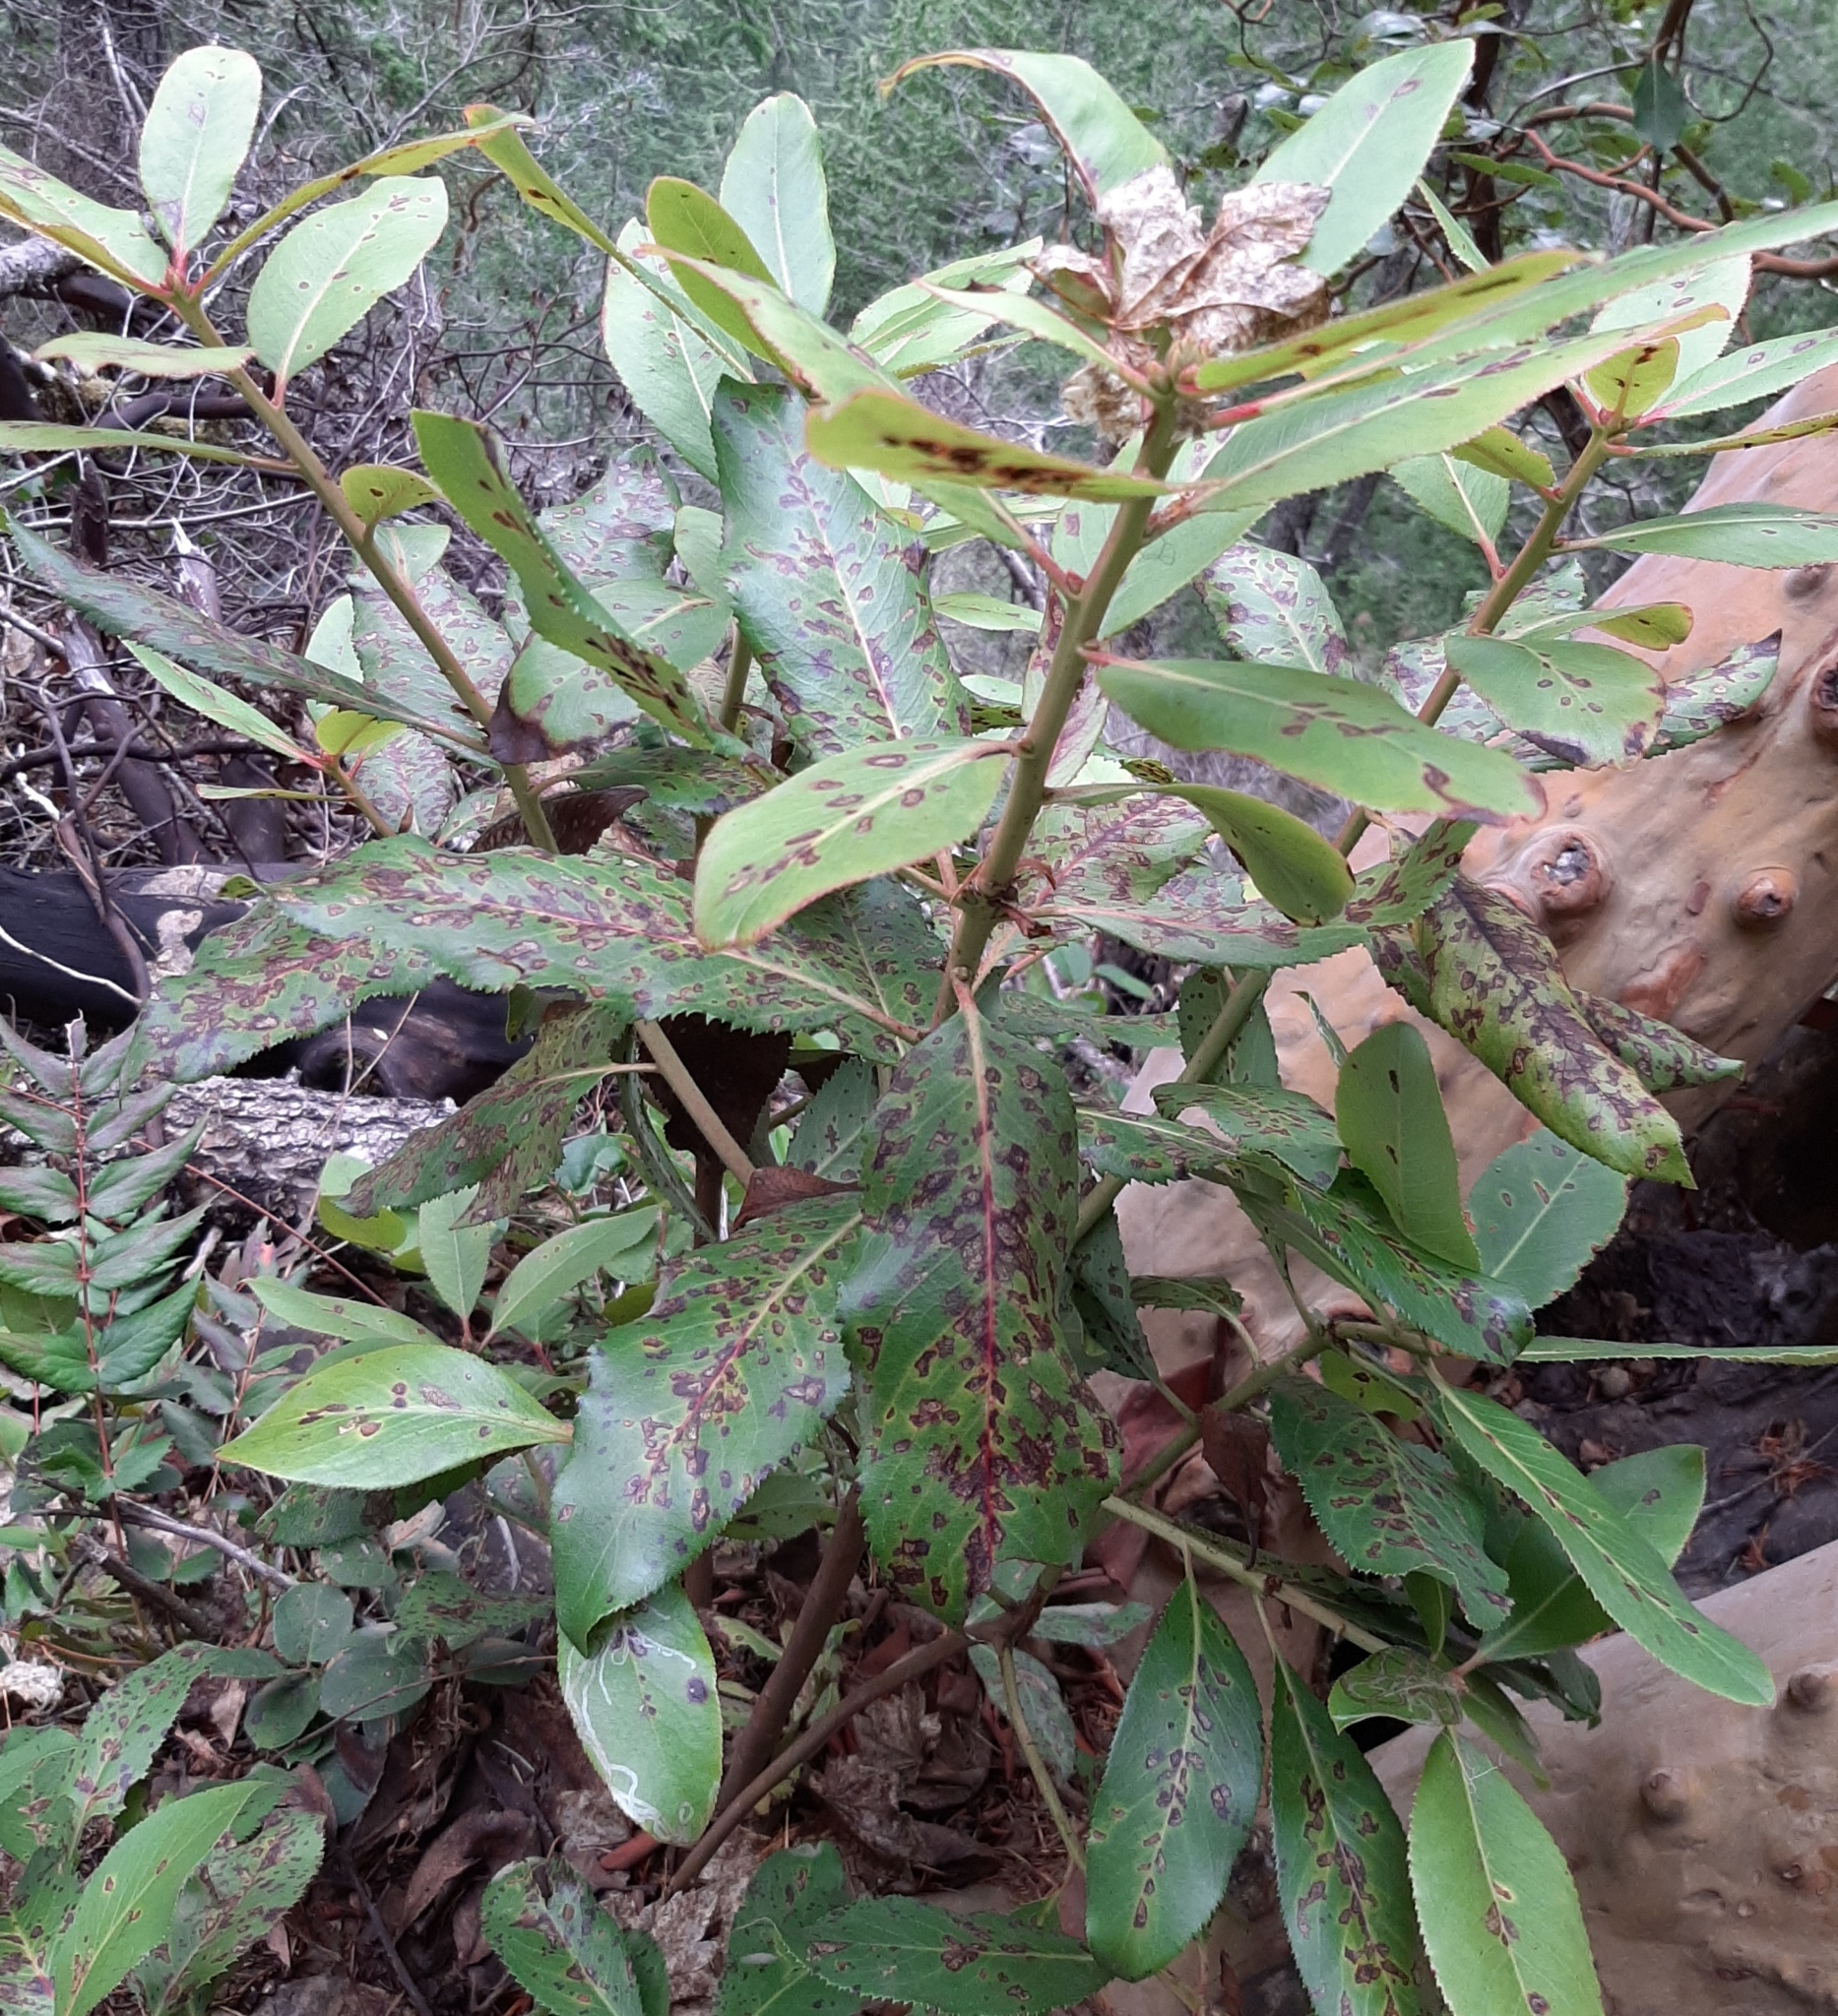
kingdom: Plantae
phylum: Tracheophyta
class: Magnoliopsida
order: Ericales
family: Ericaceae
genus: Arbutus
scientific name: Arbutus menziesii
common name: Pacific madrone
